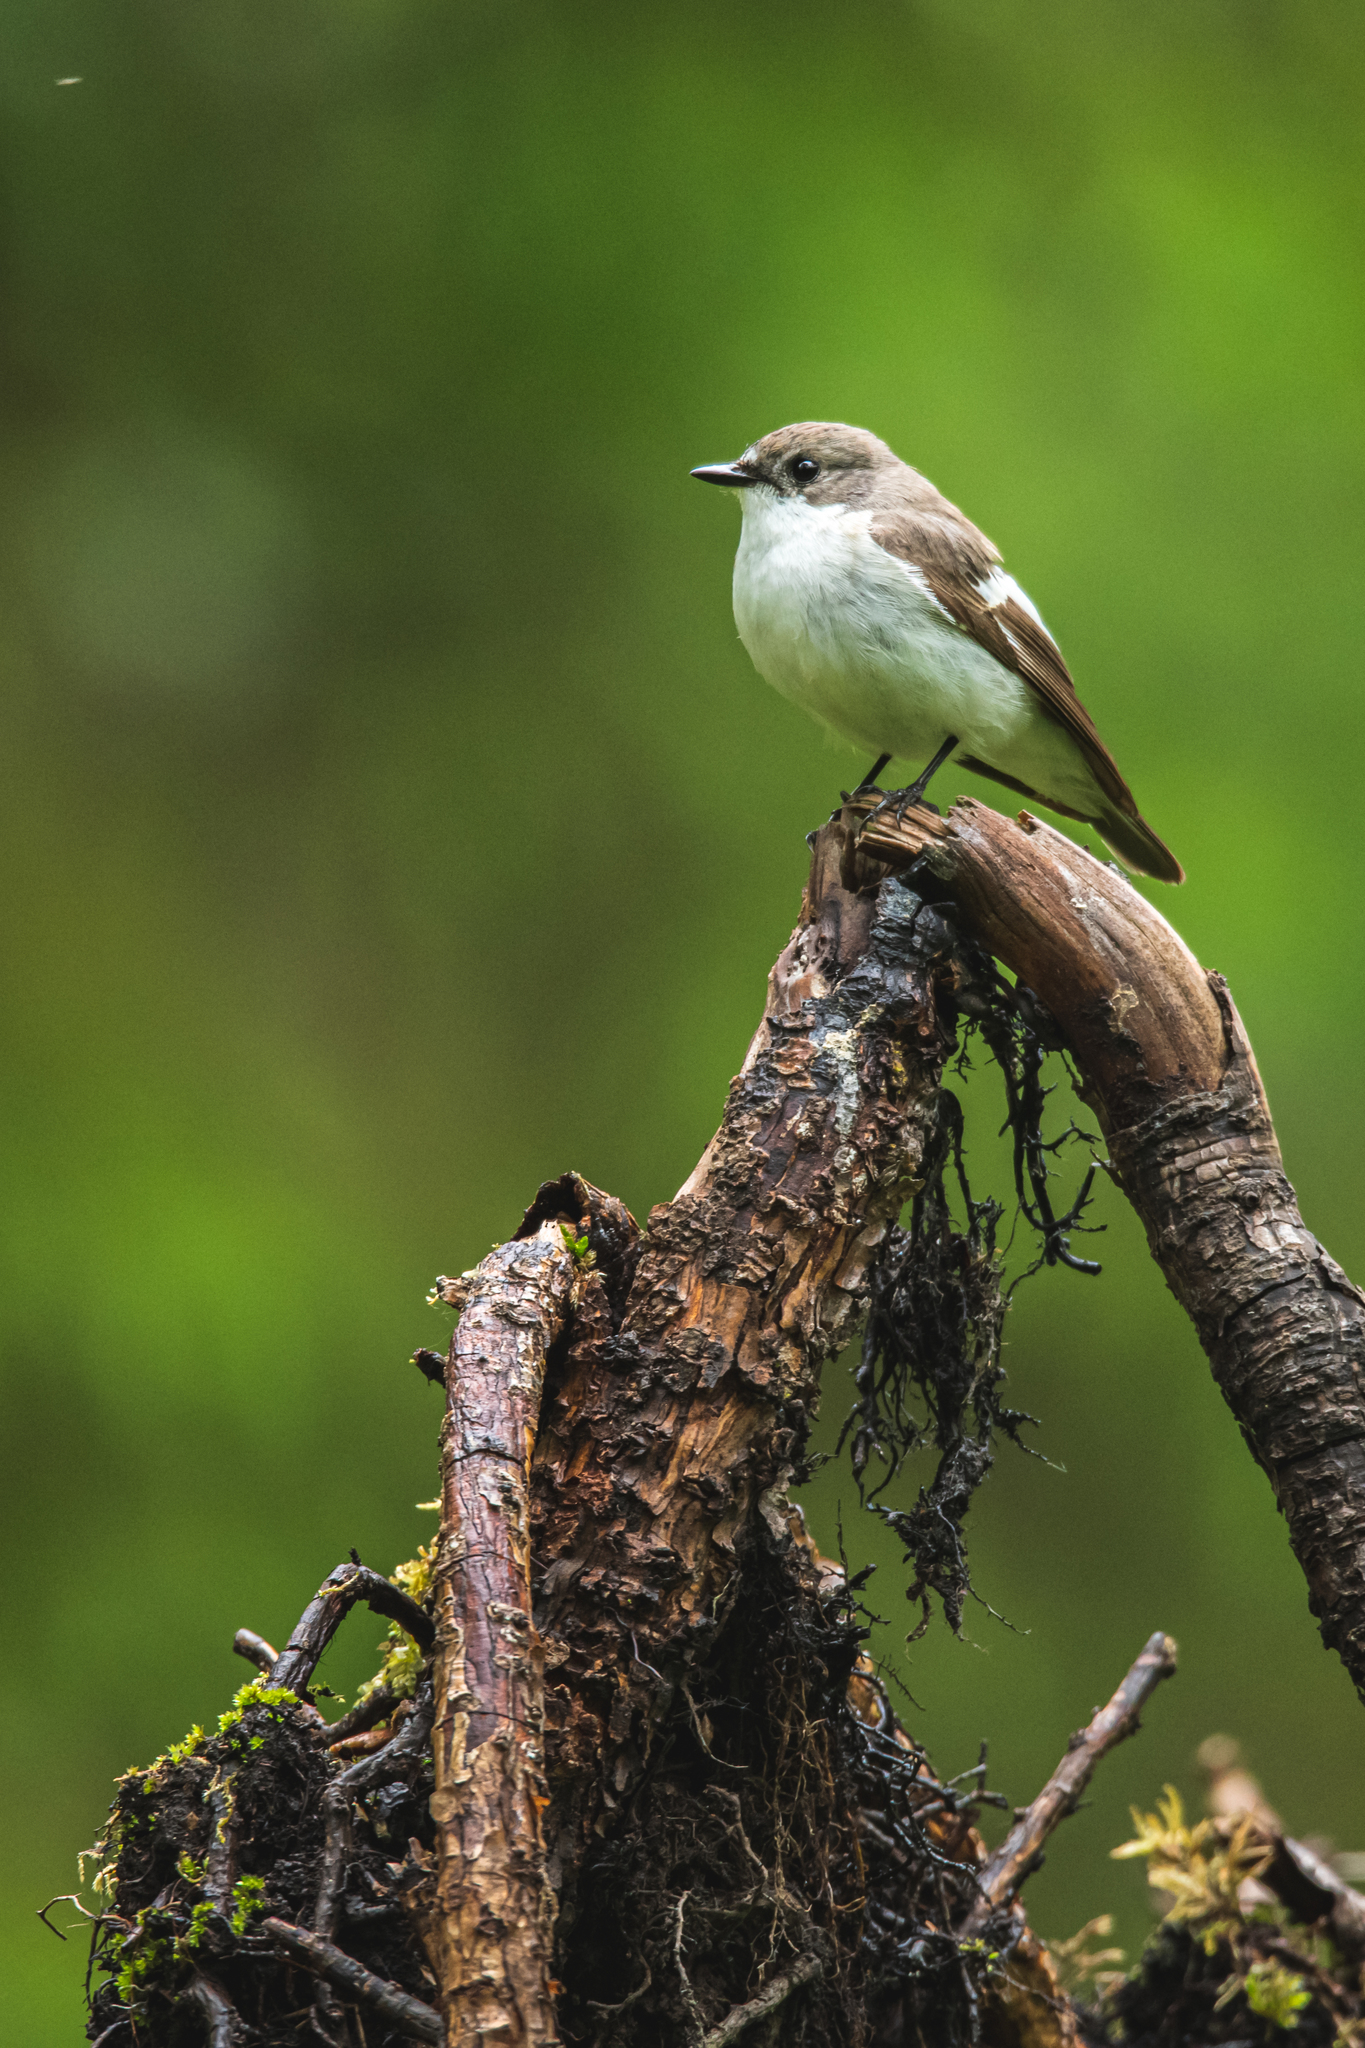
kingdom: Animalia
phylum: Chordata
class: Aves
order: Passeriformes
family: Muscicapidae
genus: Ficedula
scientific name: Ficedula hypoleuca
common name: European pied flycatcher
